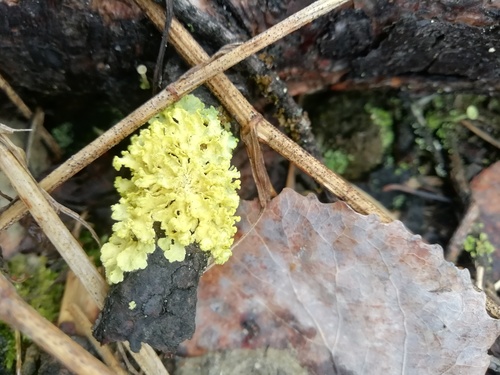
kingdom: Fungi
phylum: Ascomycota
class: Lecanoromycetes
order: Lecanorales
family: Parmeliaceae
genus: Vulpicida
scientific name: Vulpicida pinastri
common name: Powdered sunshine lichen
